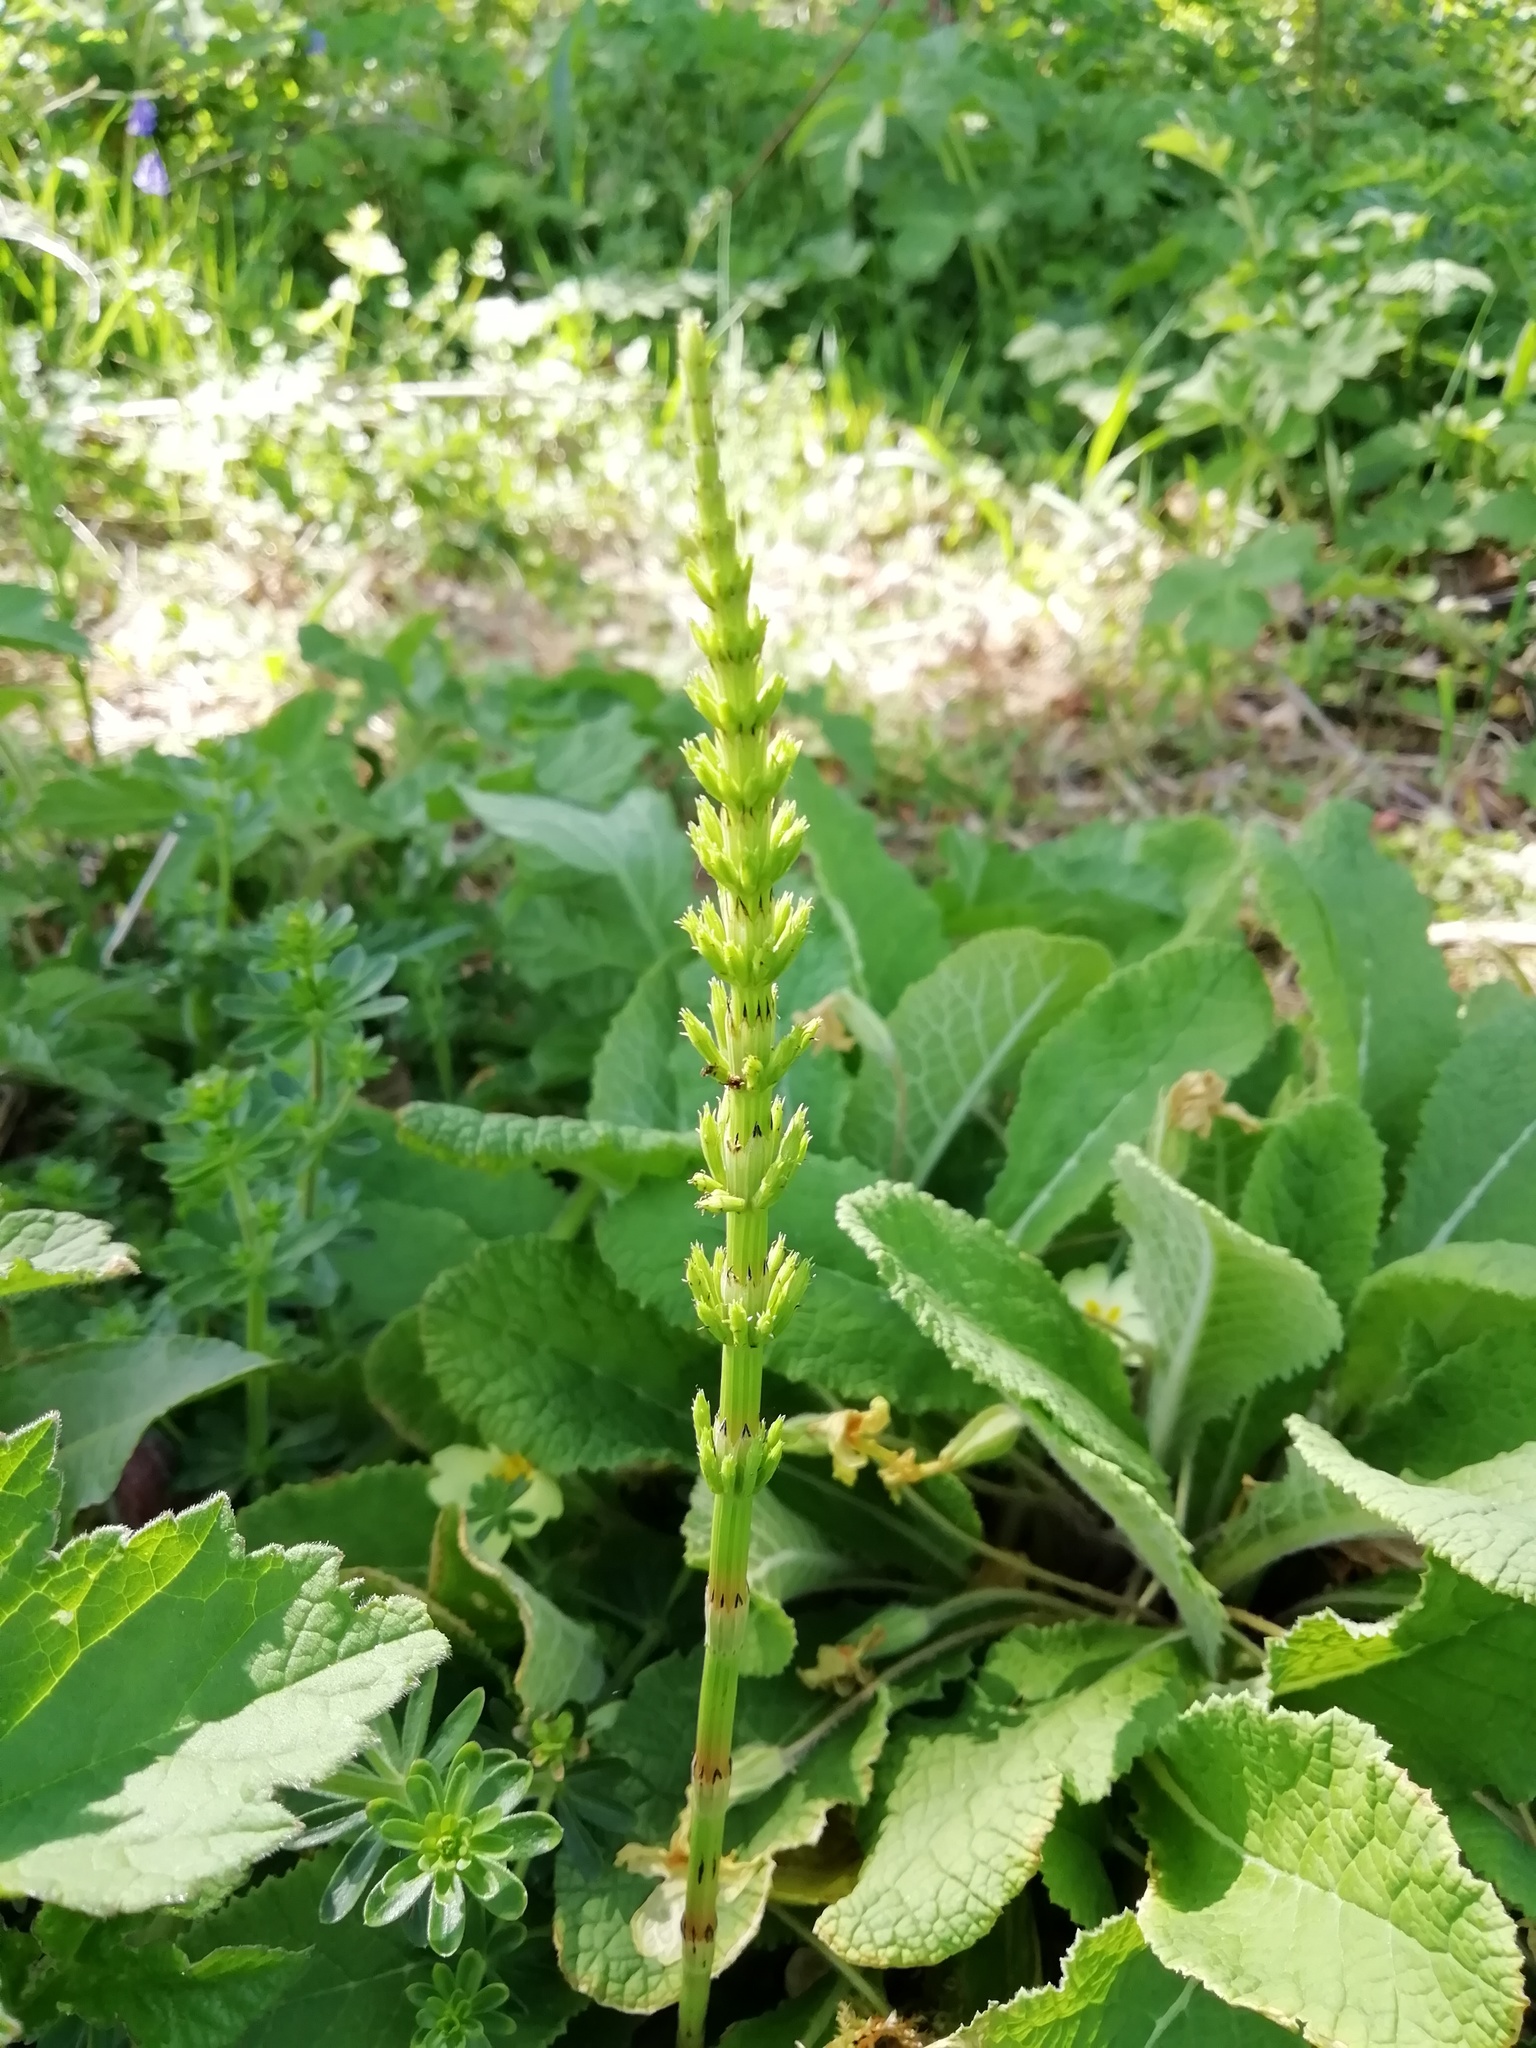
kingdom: Plantae
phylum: Tracheophyta
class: Polypodiopsida
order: Equisetales
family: Equisetaceae
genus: Equisetum
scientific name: Equisetum arvense
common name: Field horsetail
